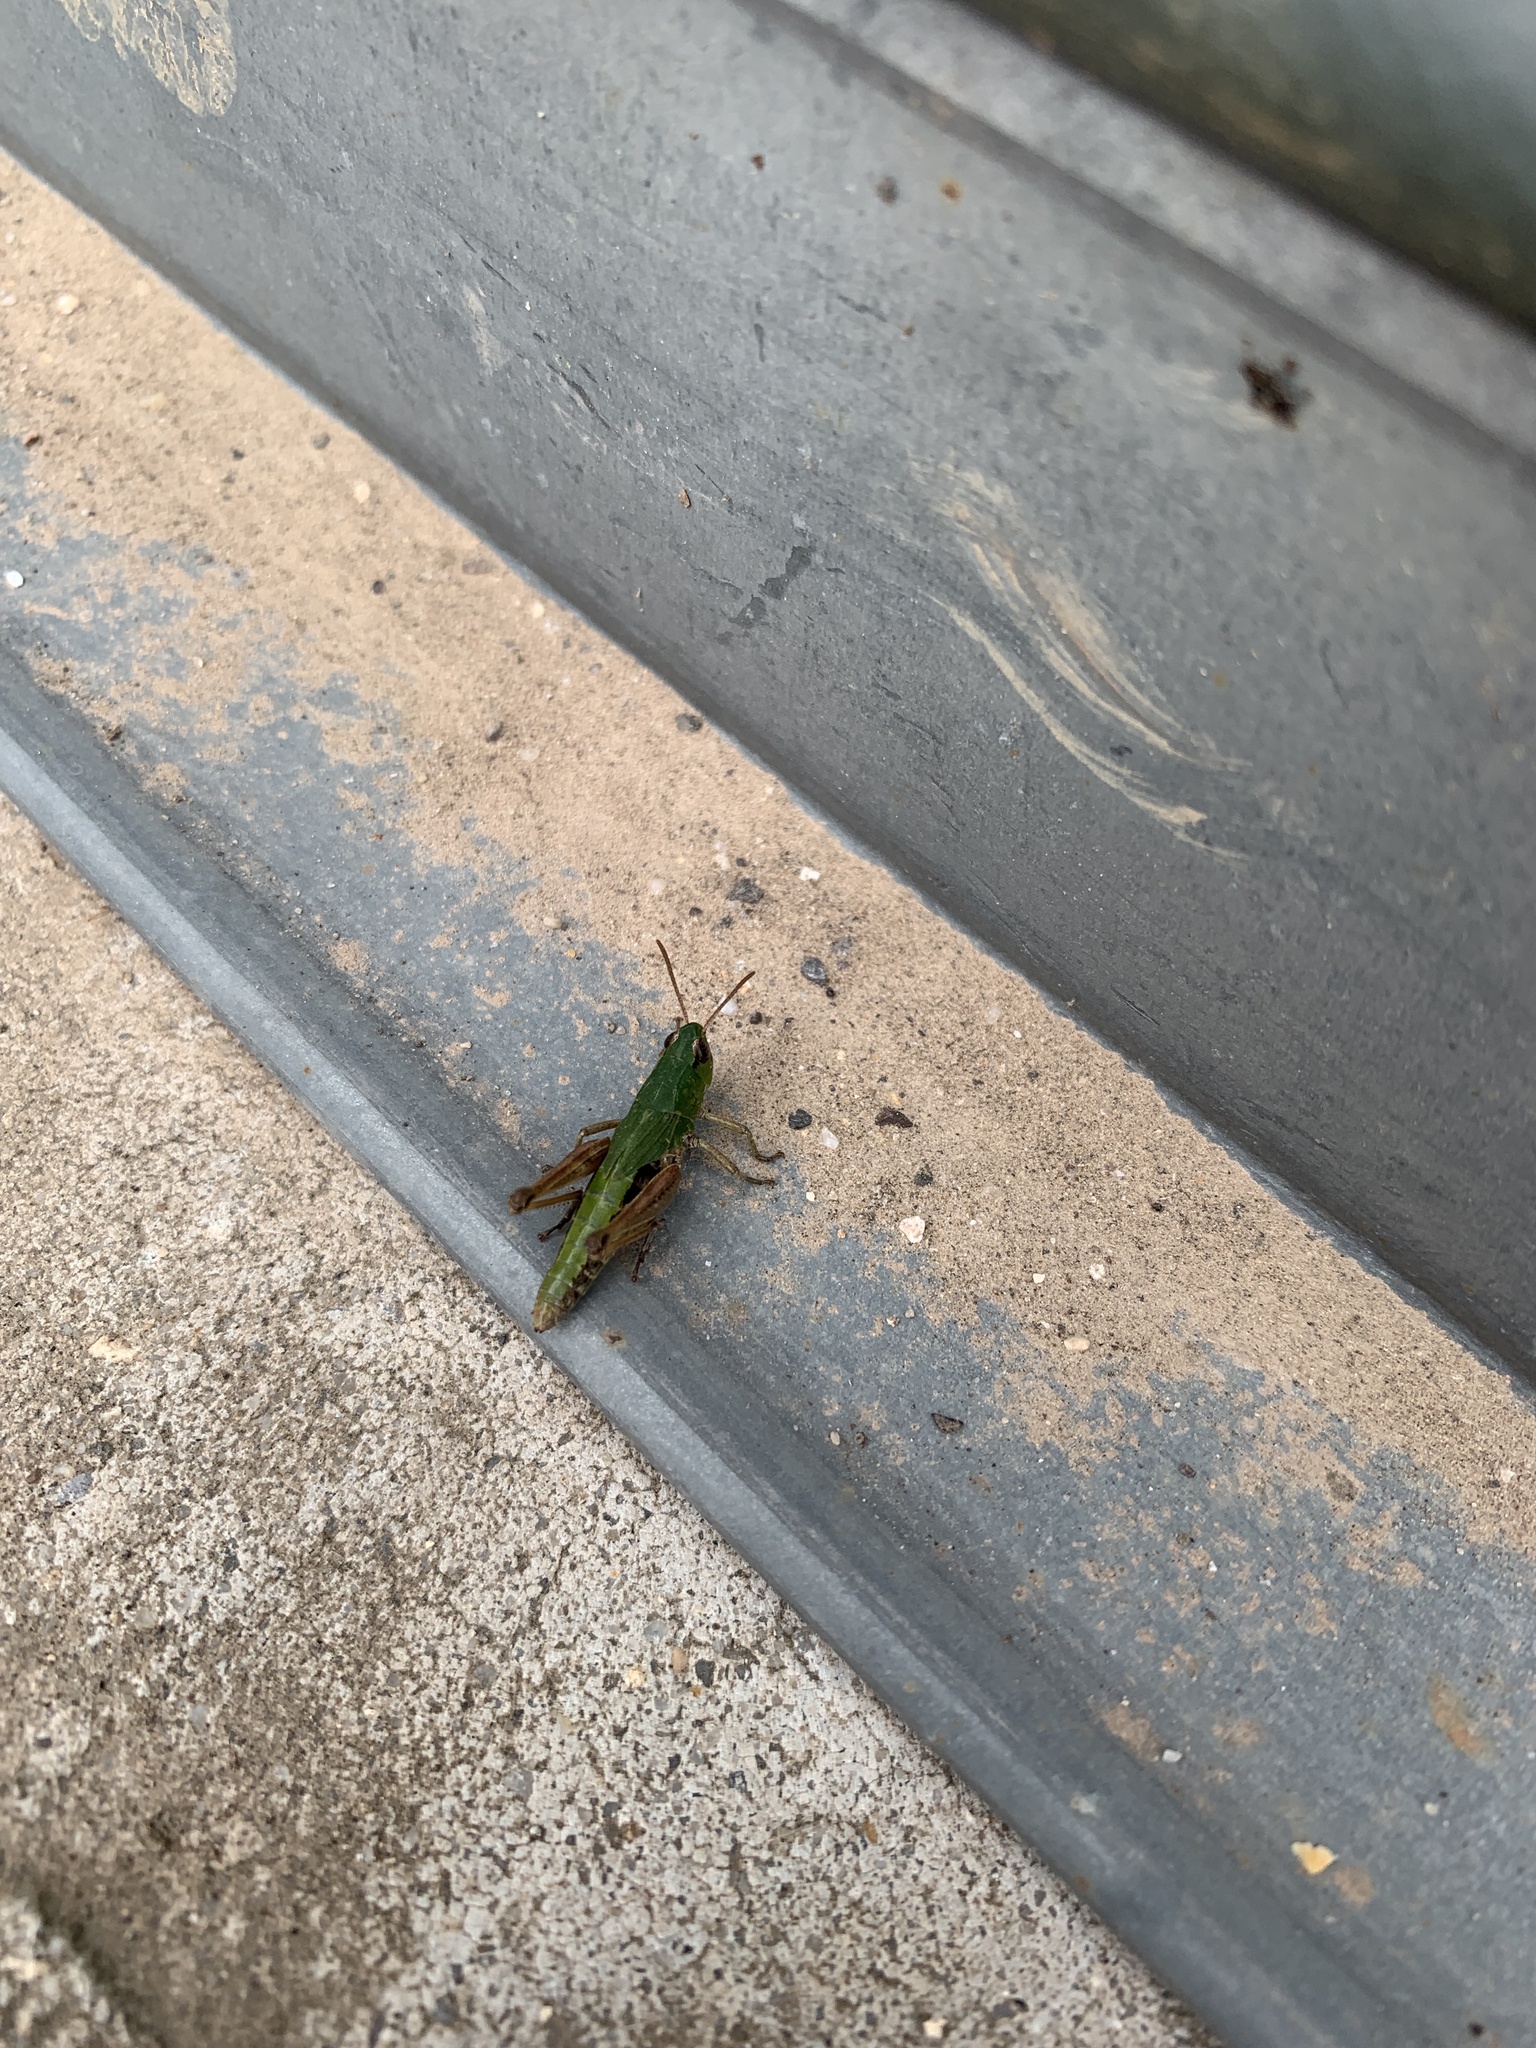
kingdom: Animalia
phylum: Arthropoda
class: Insecta
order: Orthoptera
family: Acrididae
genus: Pseudochorthippus
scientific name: Pseudochorthippus parallelus
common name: Meadow grasshopper
